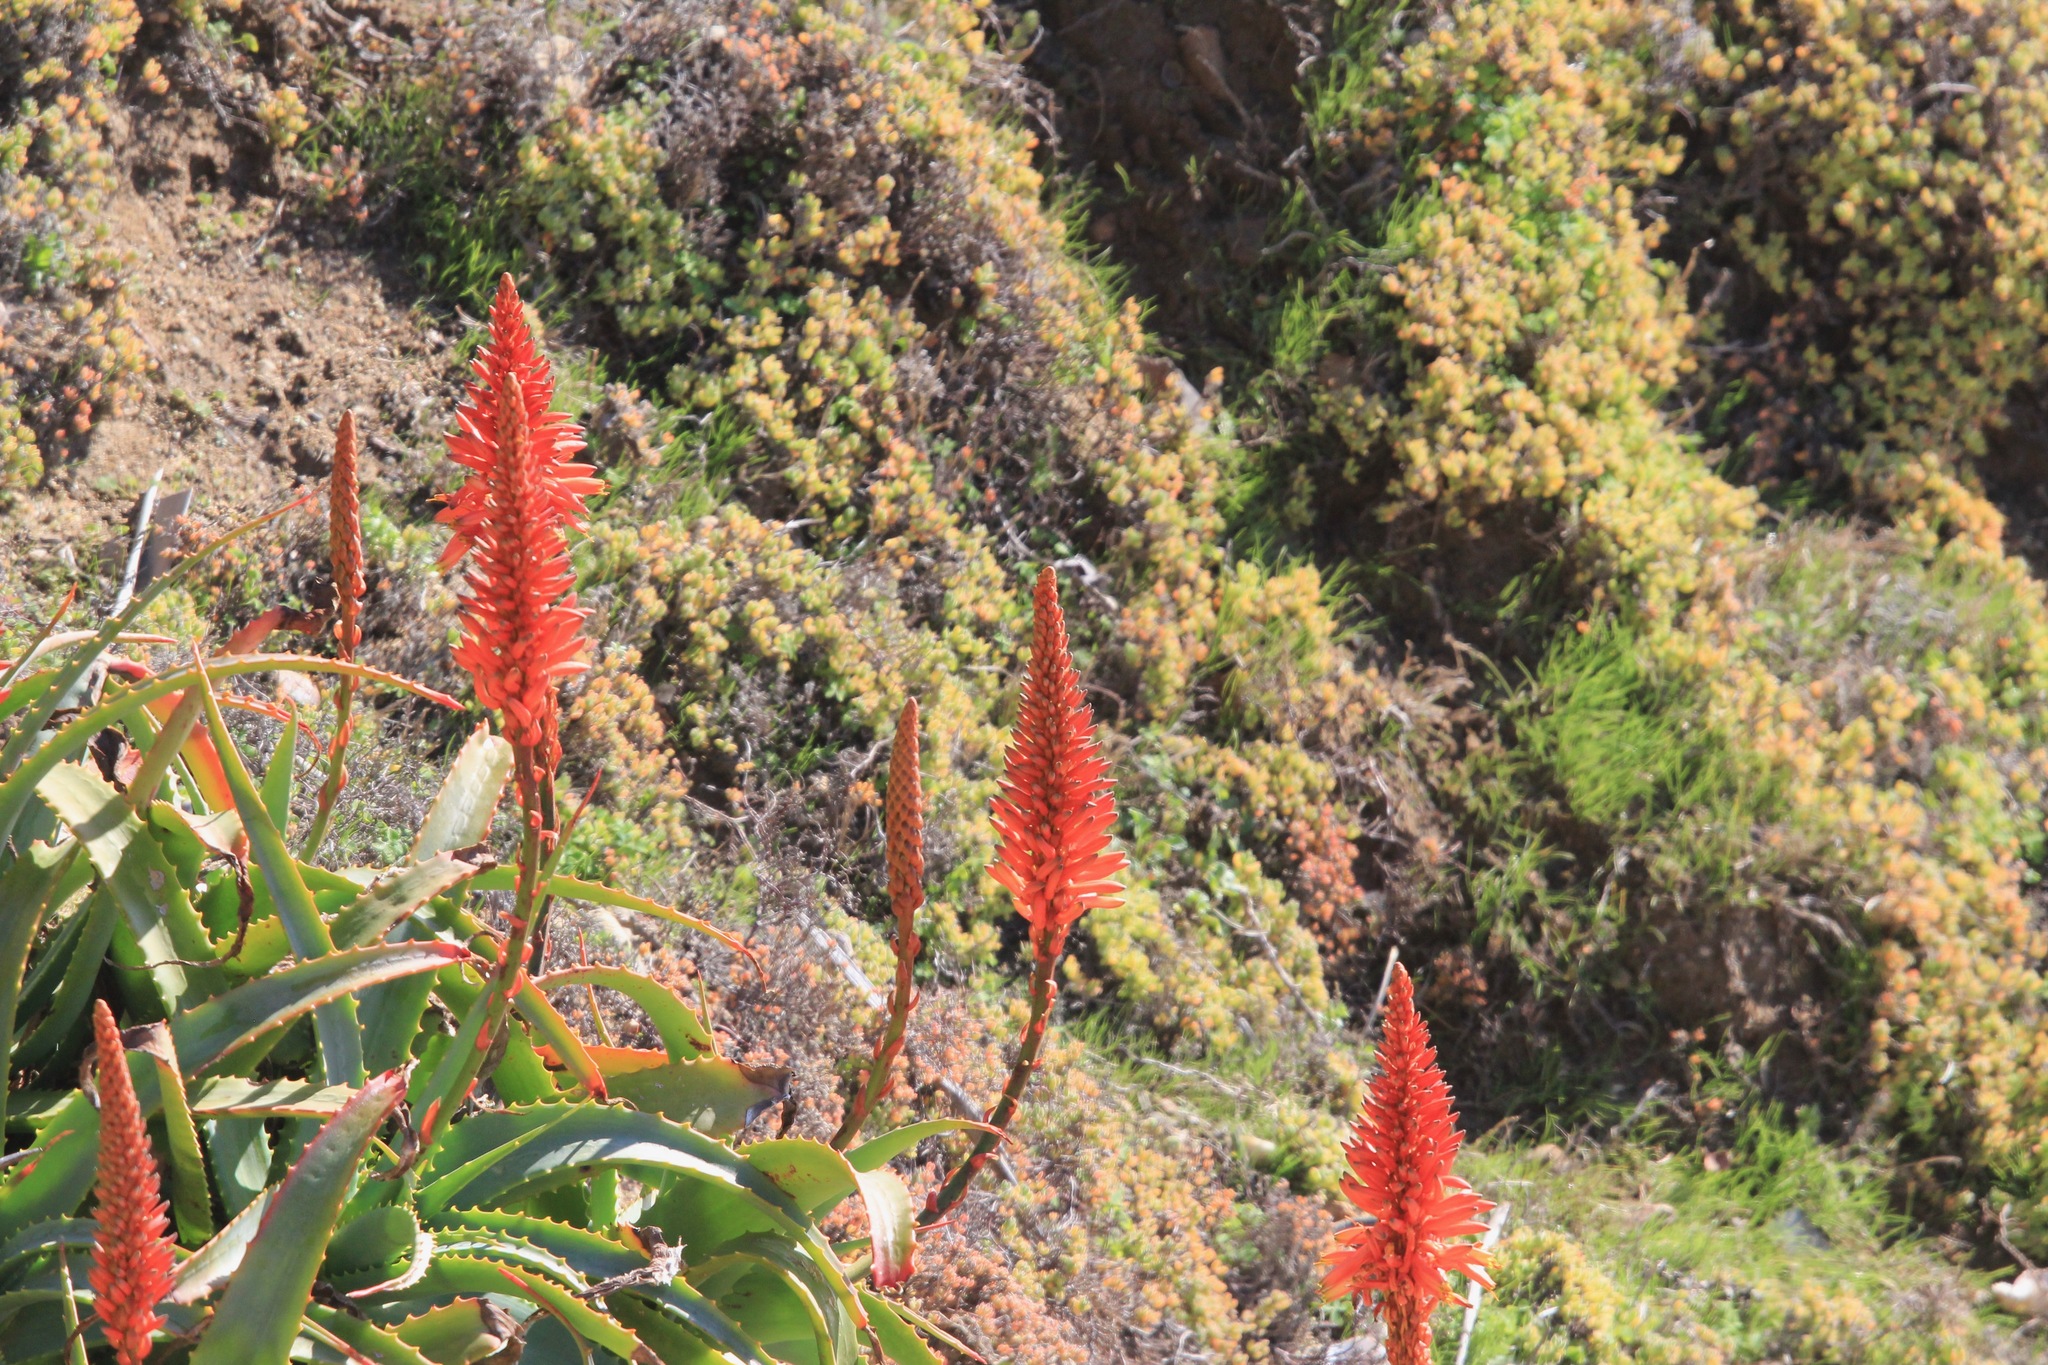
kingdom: Plantae
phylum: Tracheophyta
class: Liliopsida
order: Asparagales
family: Asphodelaceae
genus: Aloe
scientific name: Aloe arborescens
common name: Candelabra aloe
